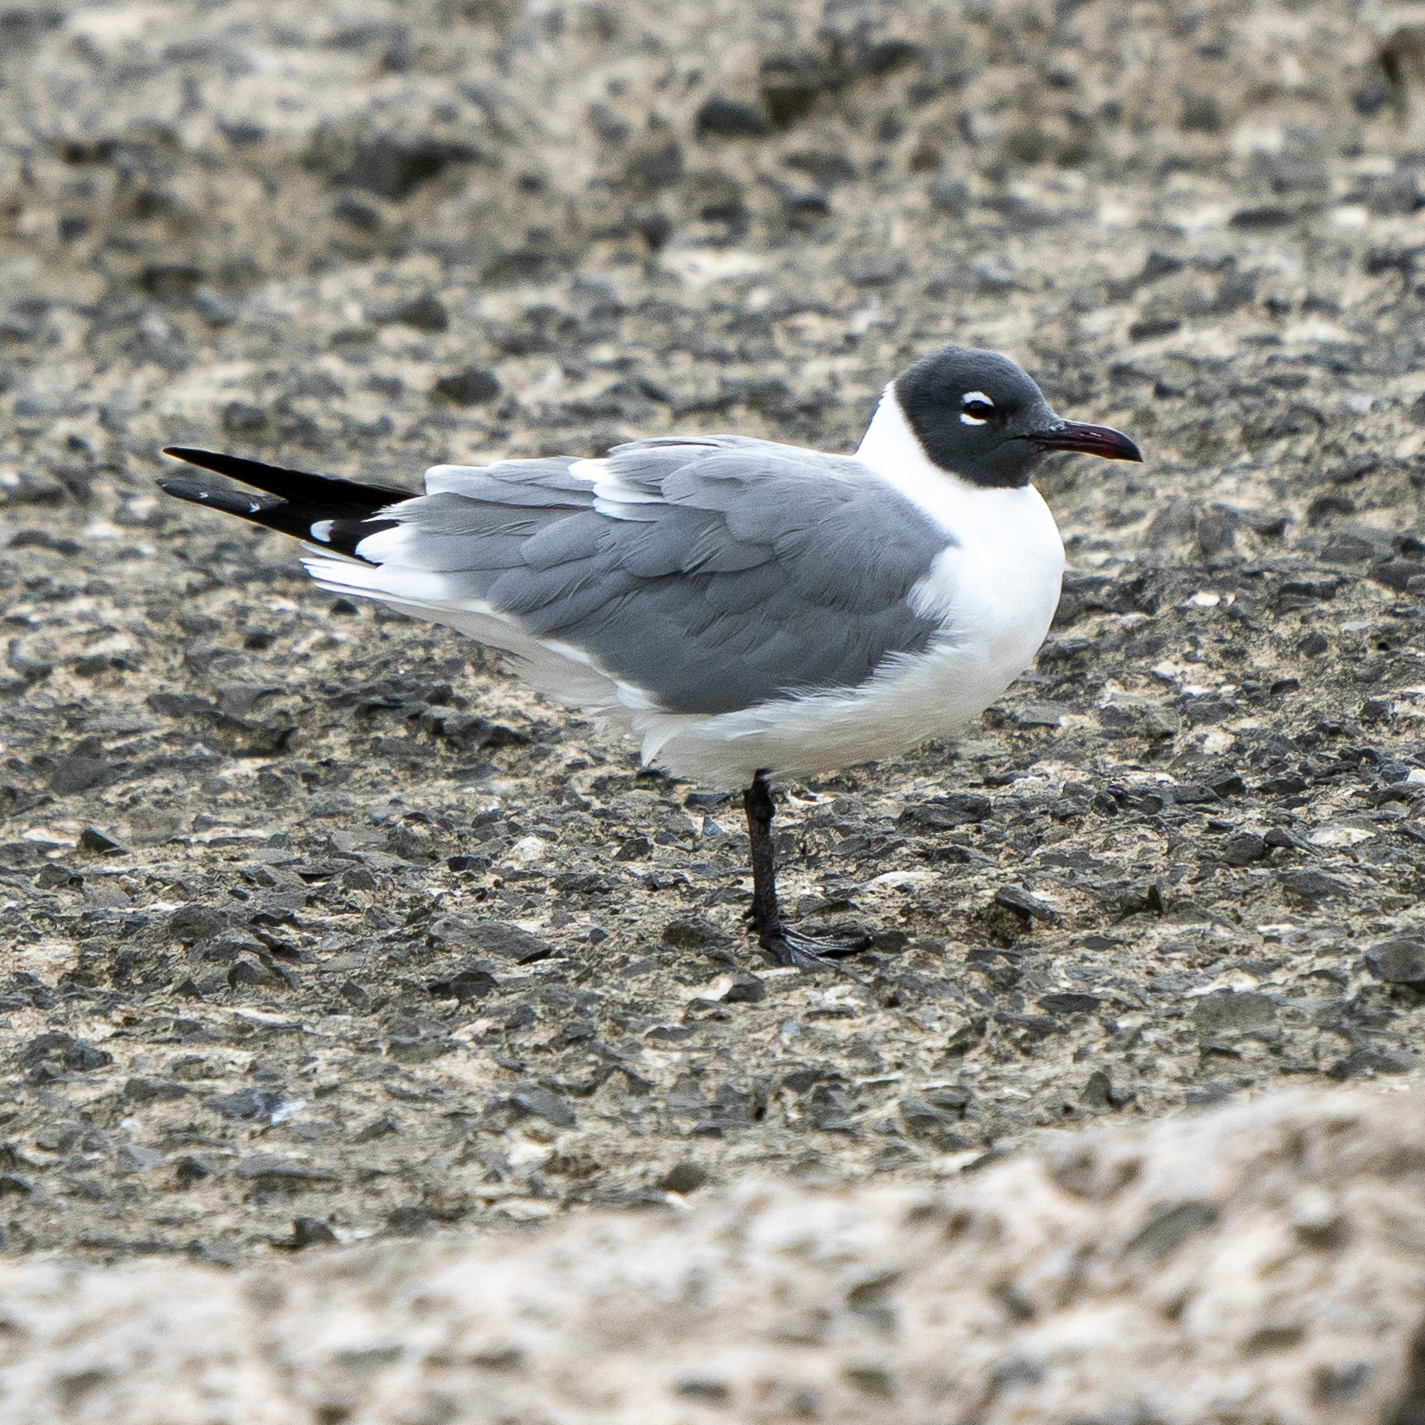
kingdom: Animalia
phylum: Chordata
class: Aves
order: Charadriiformes
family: Laridae
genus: Leucophaeus
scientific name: Leucophaeus atricilla
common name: Laughing gull
